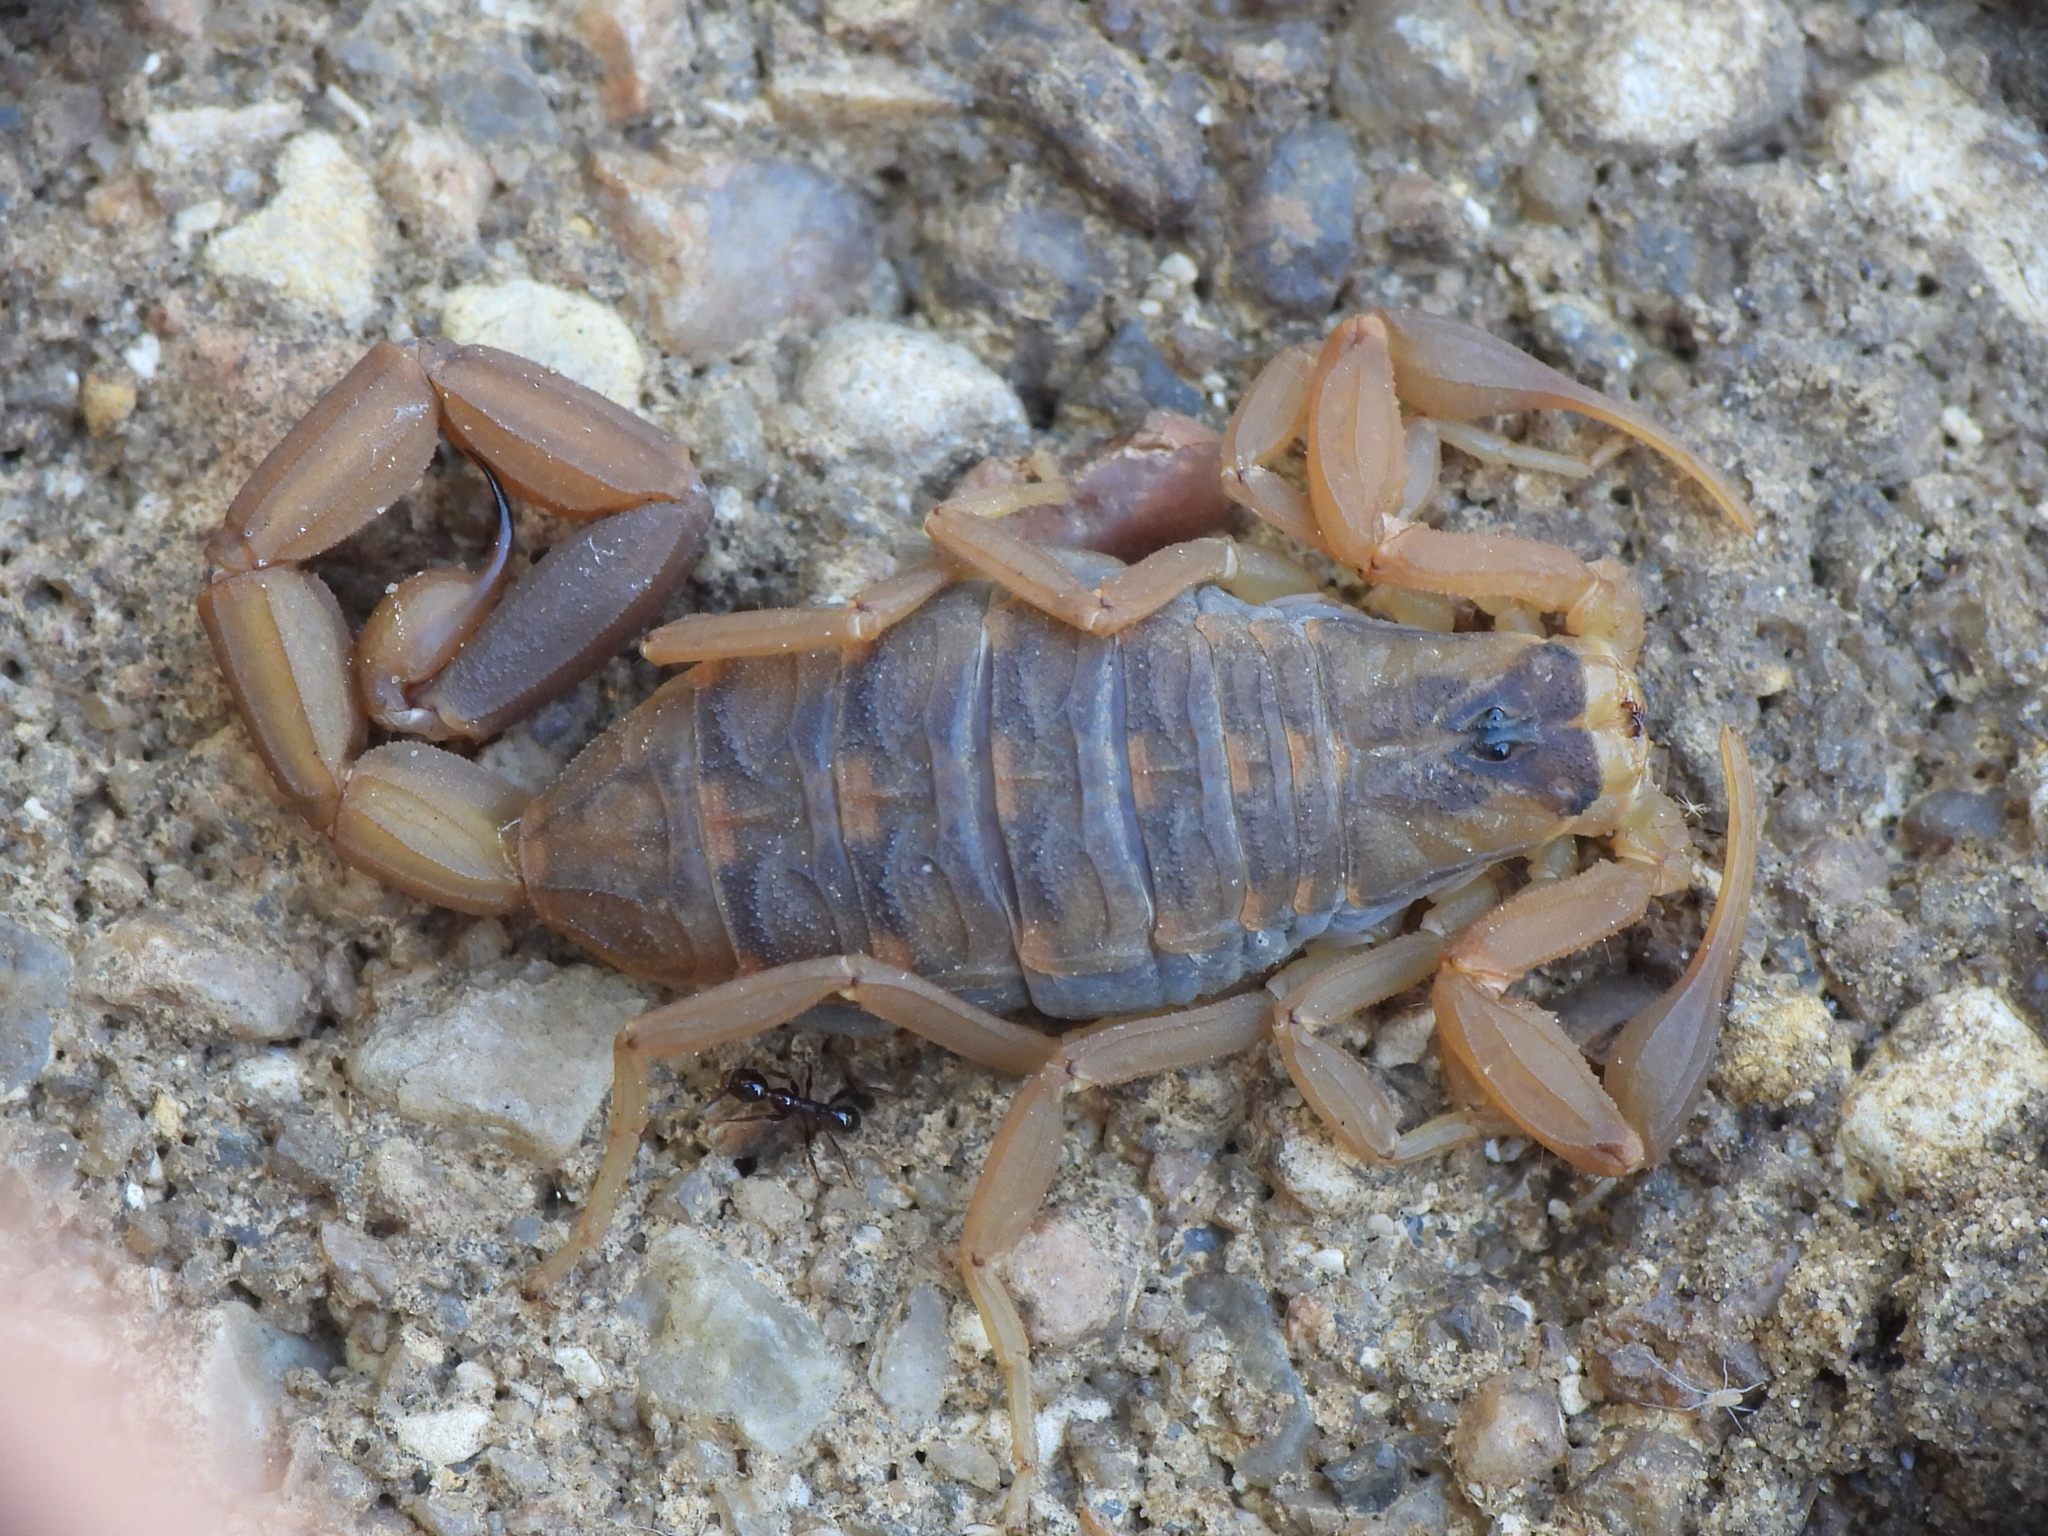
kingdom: Animalia
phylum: Arthropoda
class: Arachnida
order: Scorpiones
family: Buthidae
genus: Centruroides
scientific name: Centruroides vittatus
